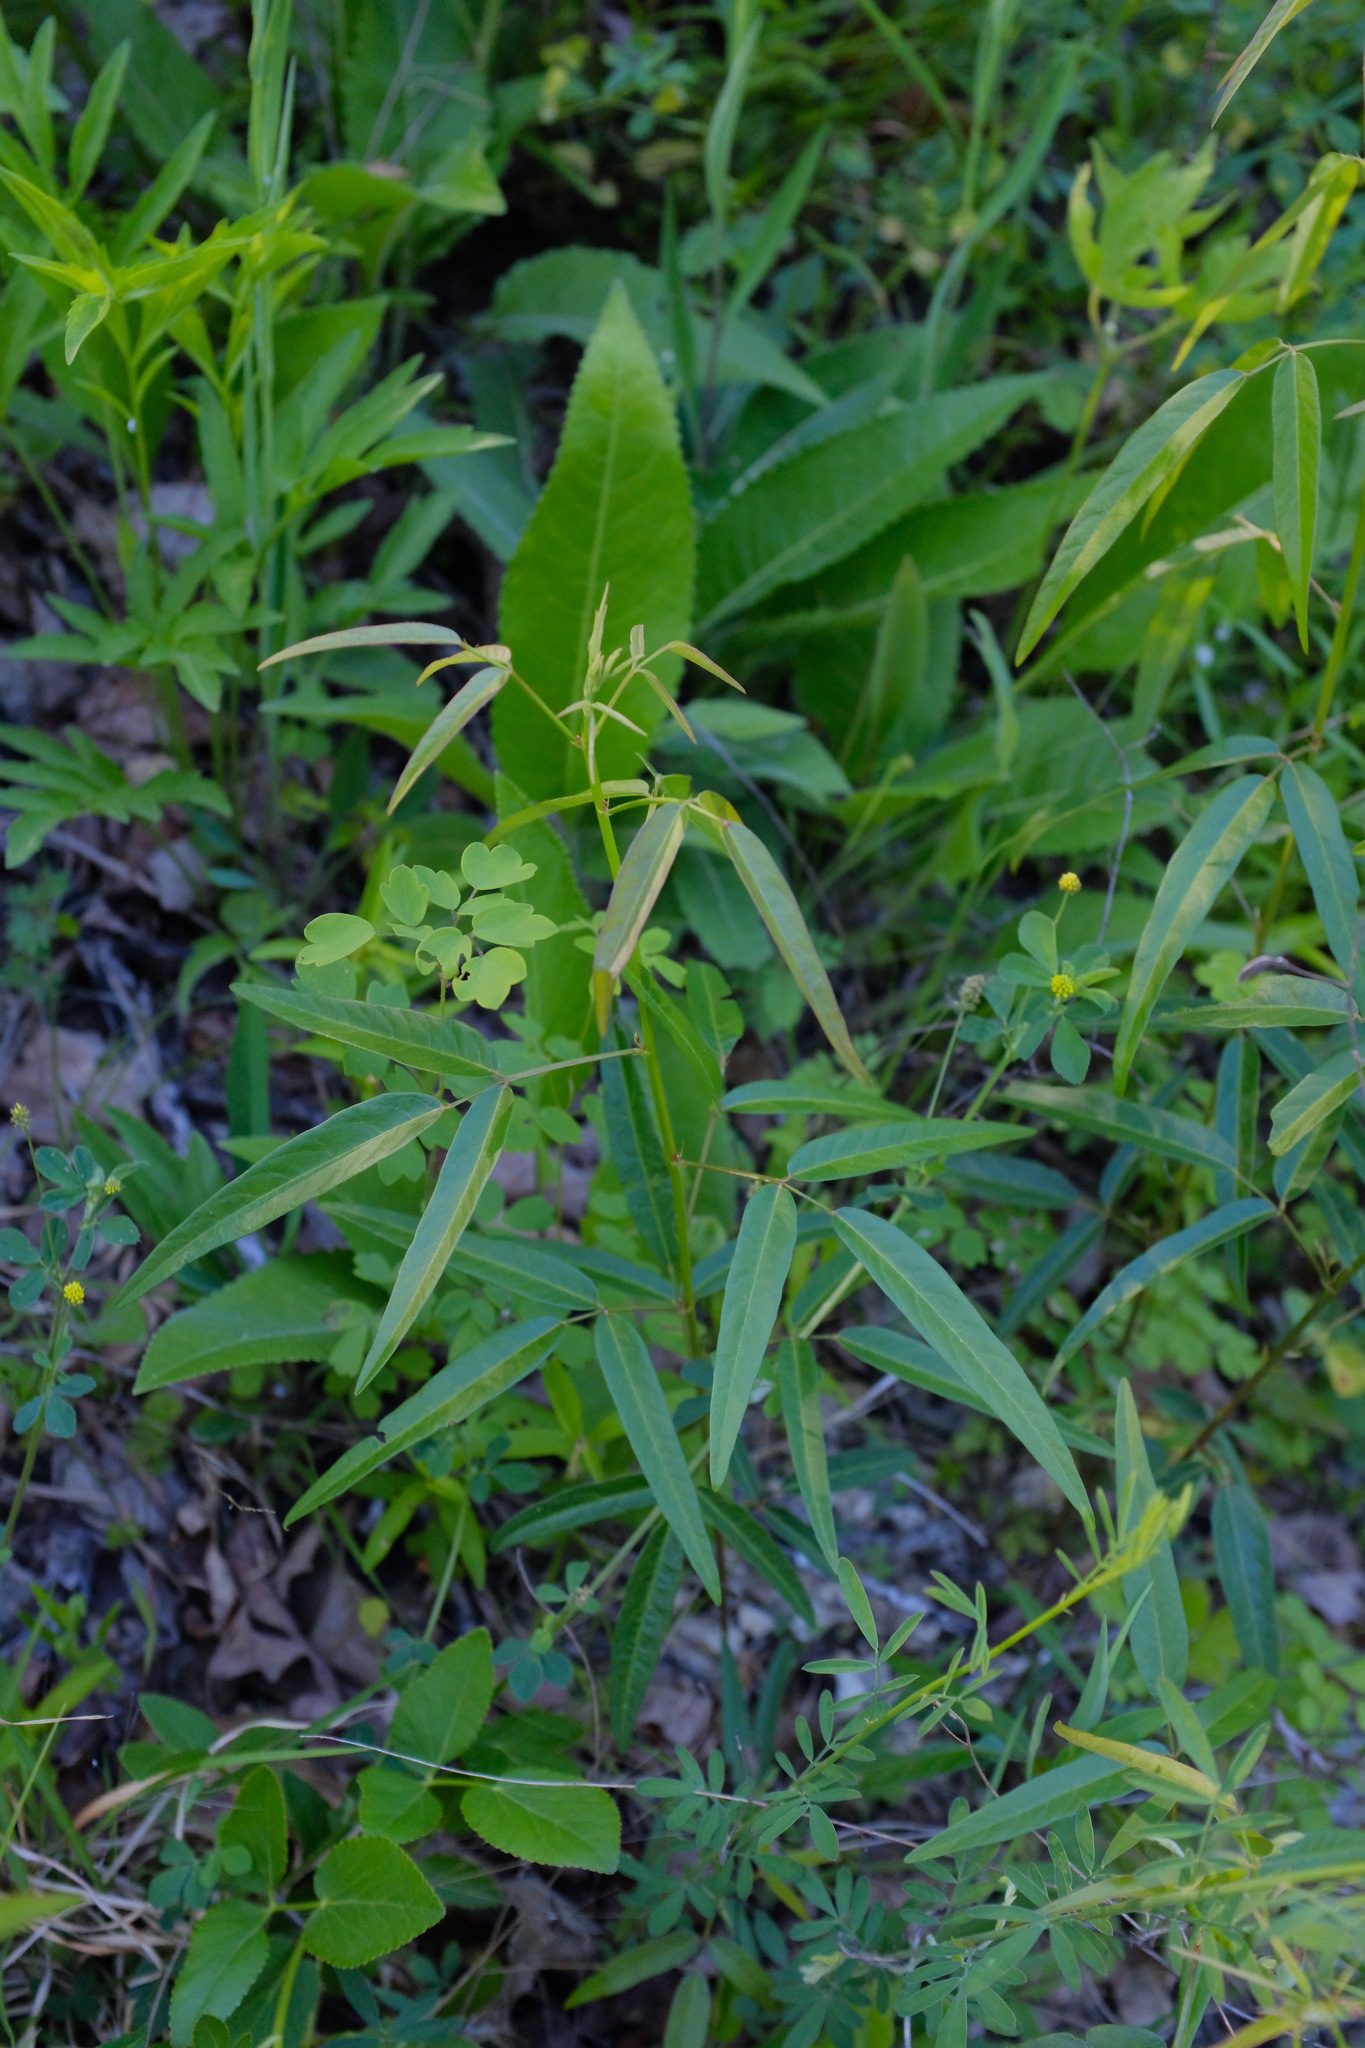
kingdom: Plantae
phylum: Tracheophyta
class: Magnoliopsida
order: Fabales
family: Fabaceae
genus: Desmodium
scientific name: Desmodium paniculatum
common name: Panicled tick-clover
